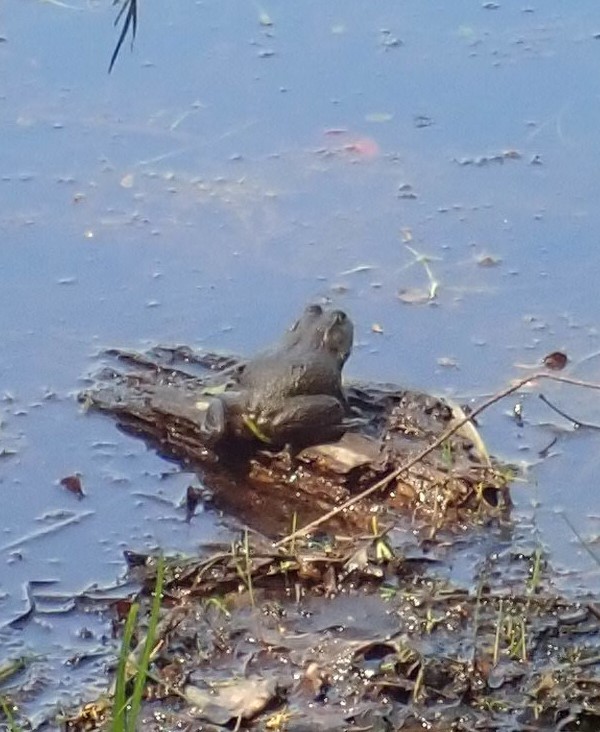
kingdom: Animalia
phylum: Chordata
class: Amphibia
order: Anura
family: Ranidae
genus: Lithobates
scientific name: Lithobates catesbeianus
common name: American bullfrog
